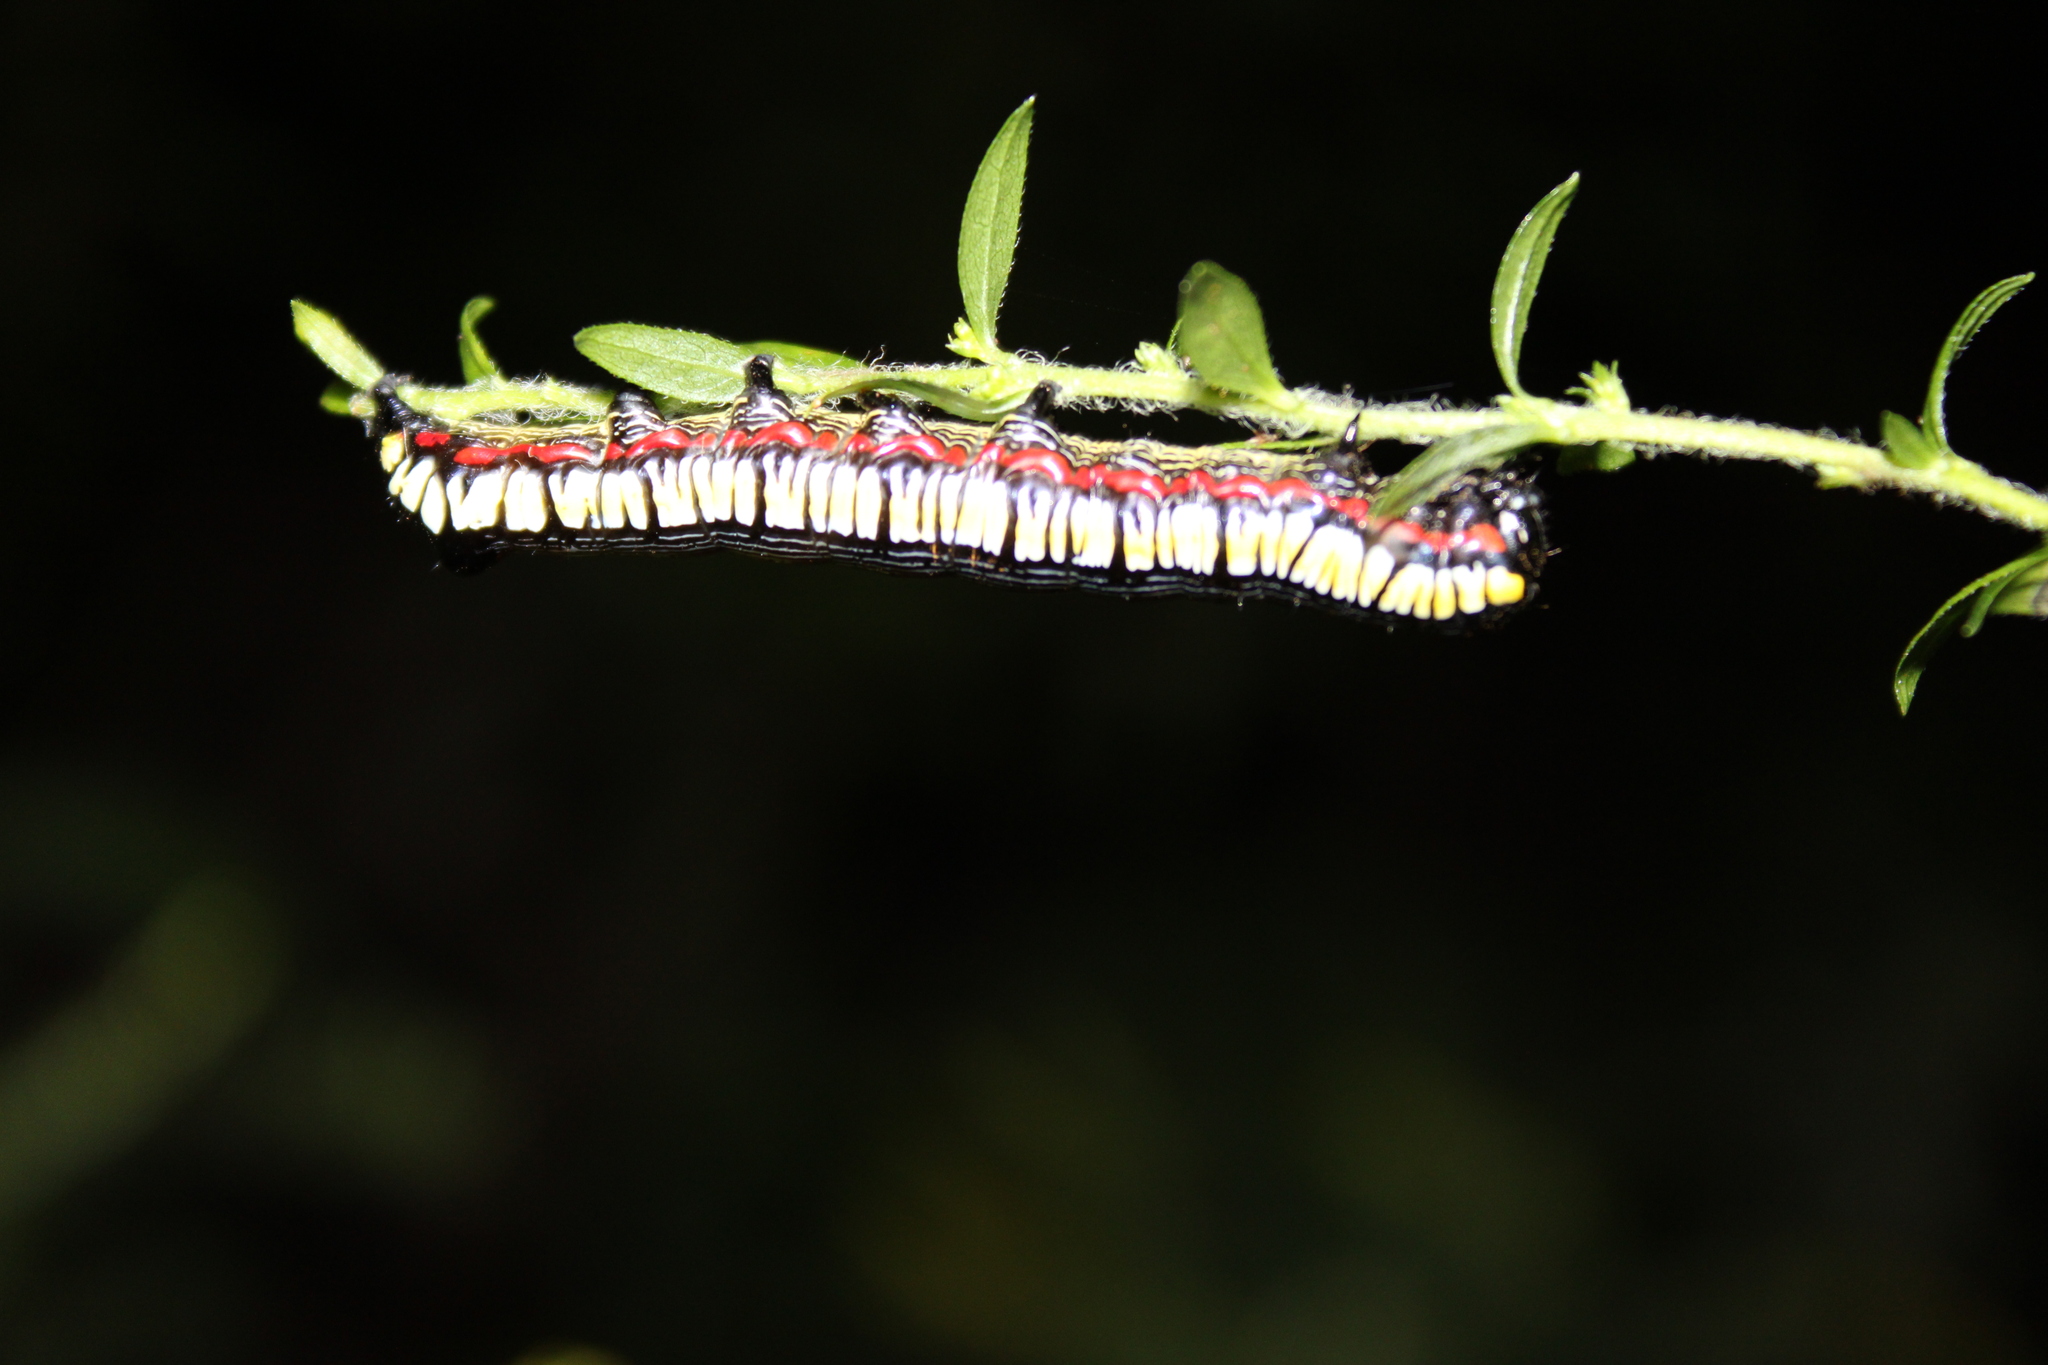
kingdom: Animalia
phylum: Arthropoda
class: Insecta
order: Lepidoptera
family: Noctuidae
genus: Cucullia
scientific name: Cucullia convexipennis
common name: Brown-hooded owlet
